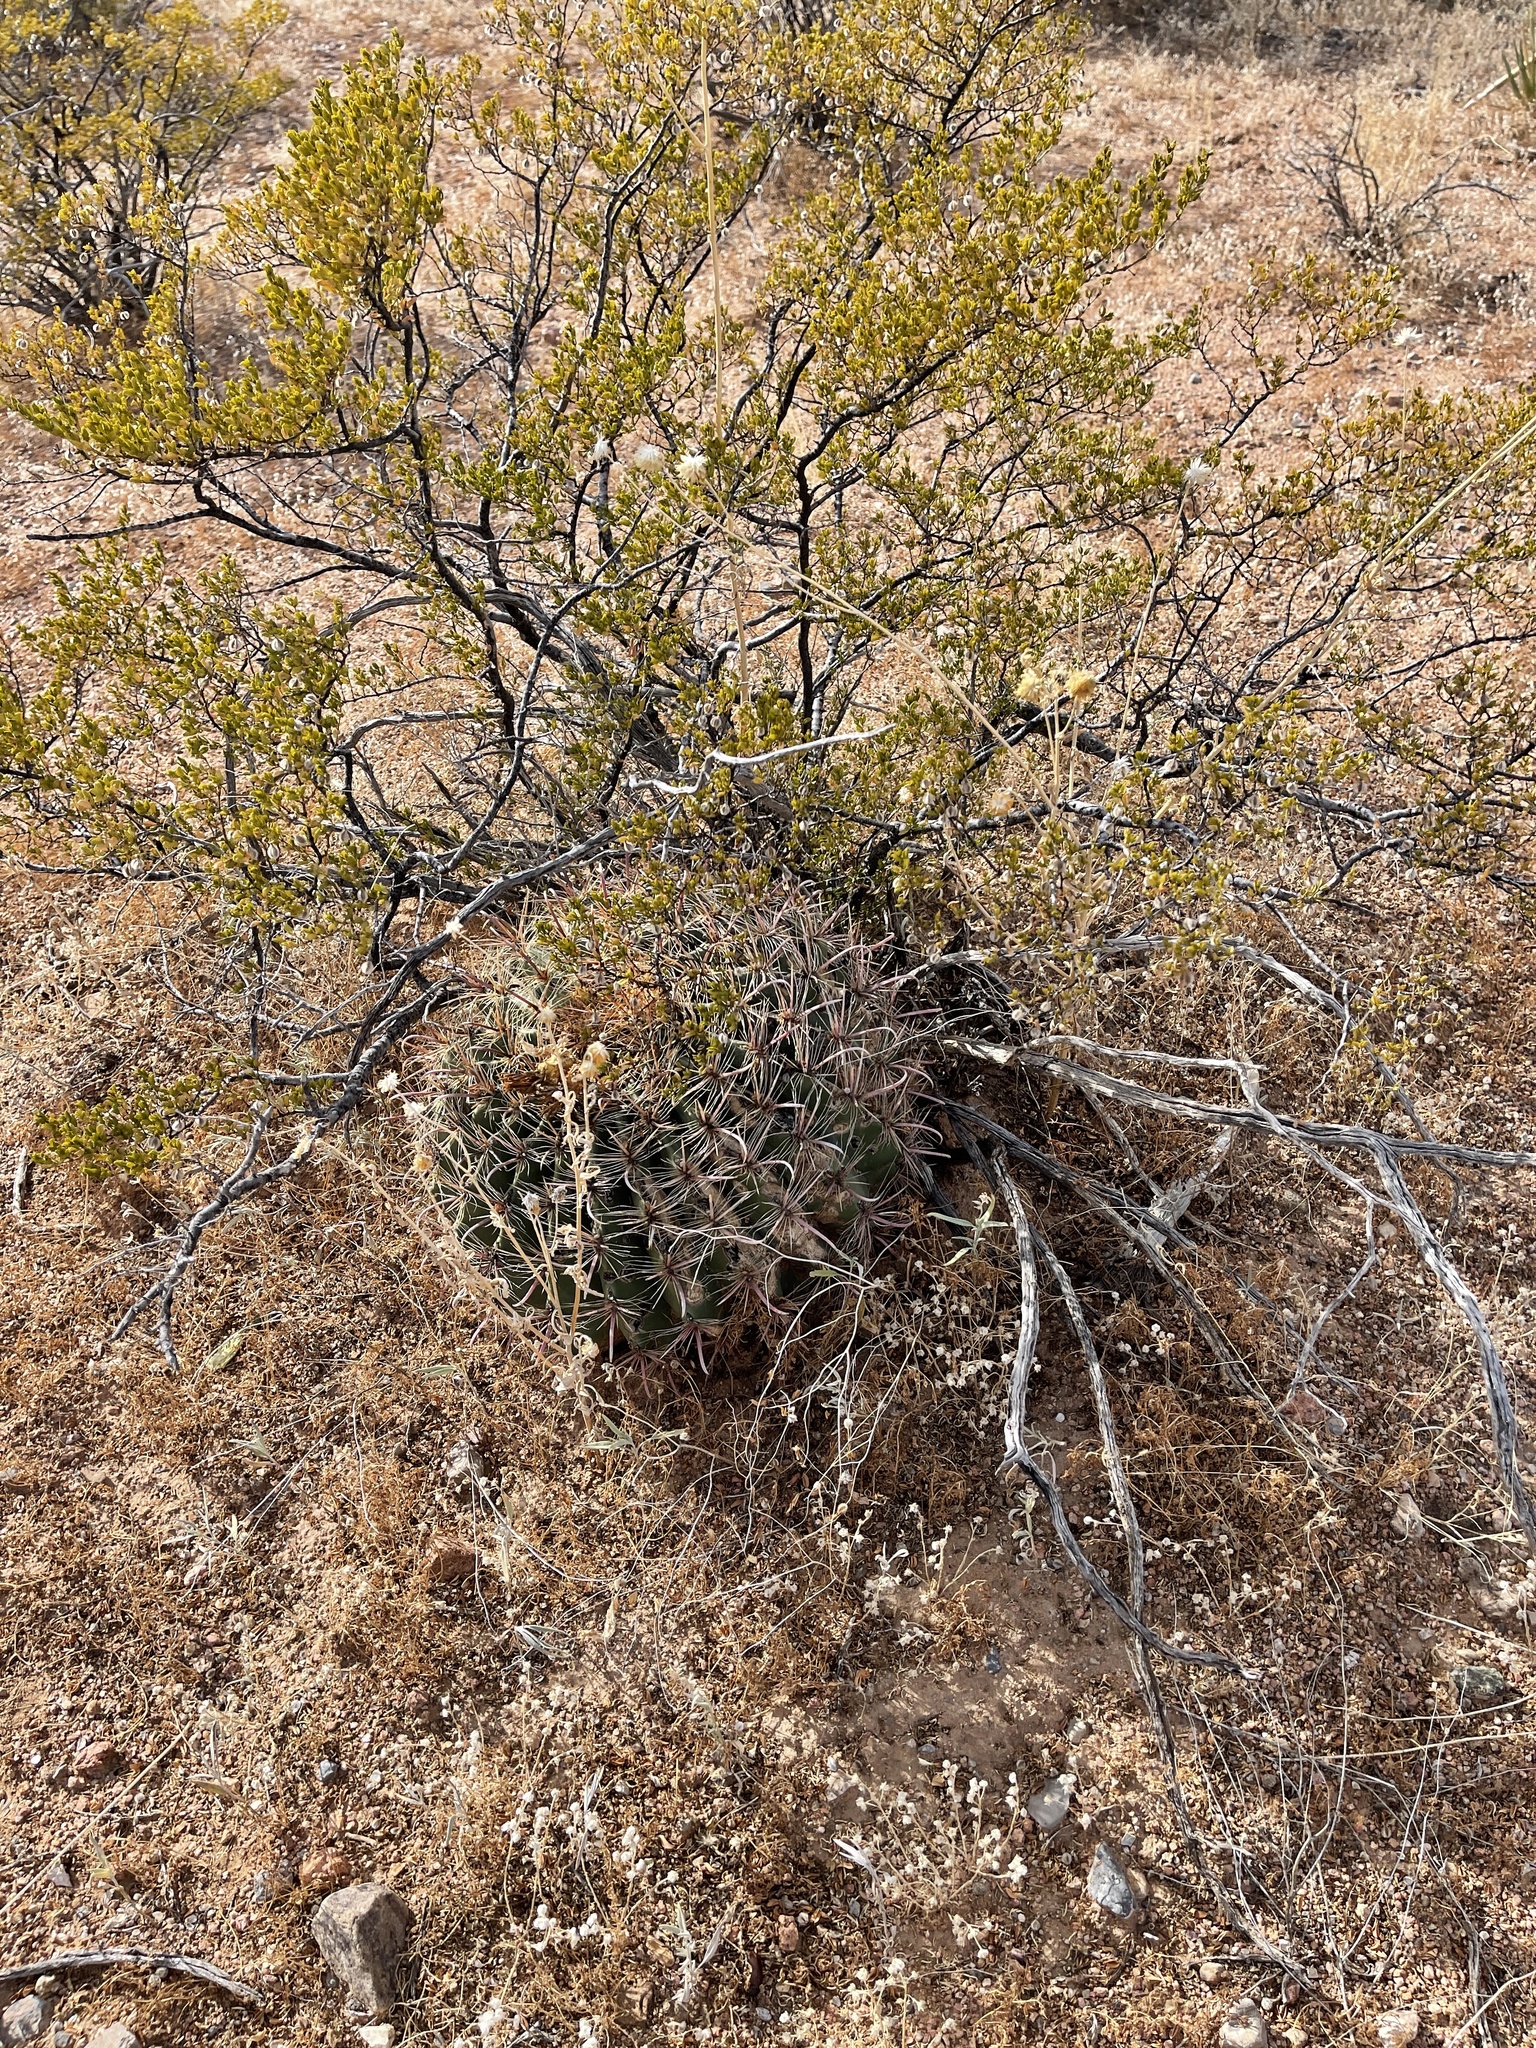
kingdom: Plantae
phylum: Tracheophyta
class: Magnoliopsida
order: Caryophyllales
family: Cactaceae
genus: Ferocactus
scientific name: Ferocactus wislizeni
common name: Candy barrel cactus
